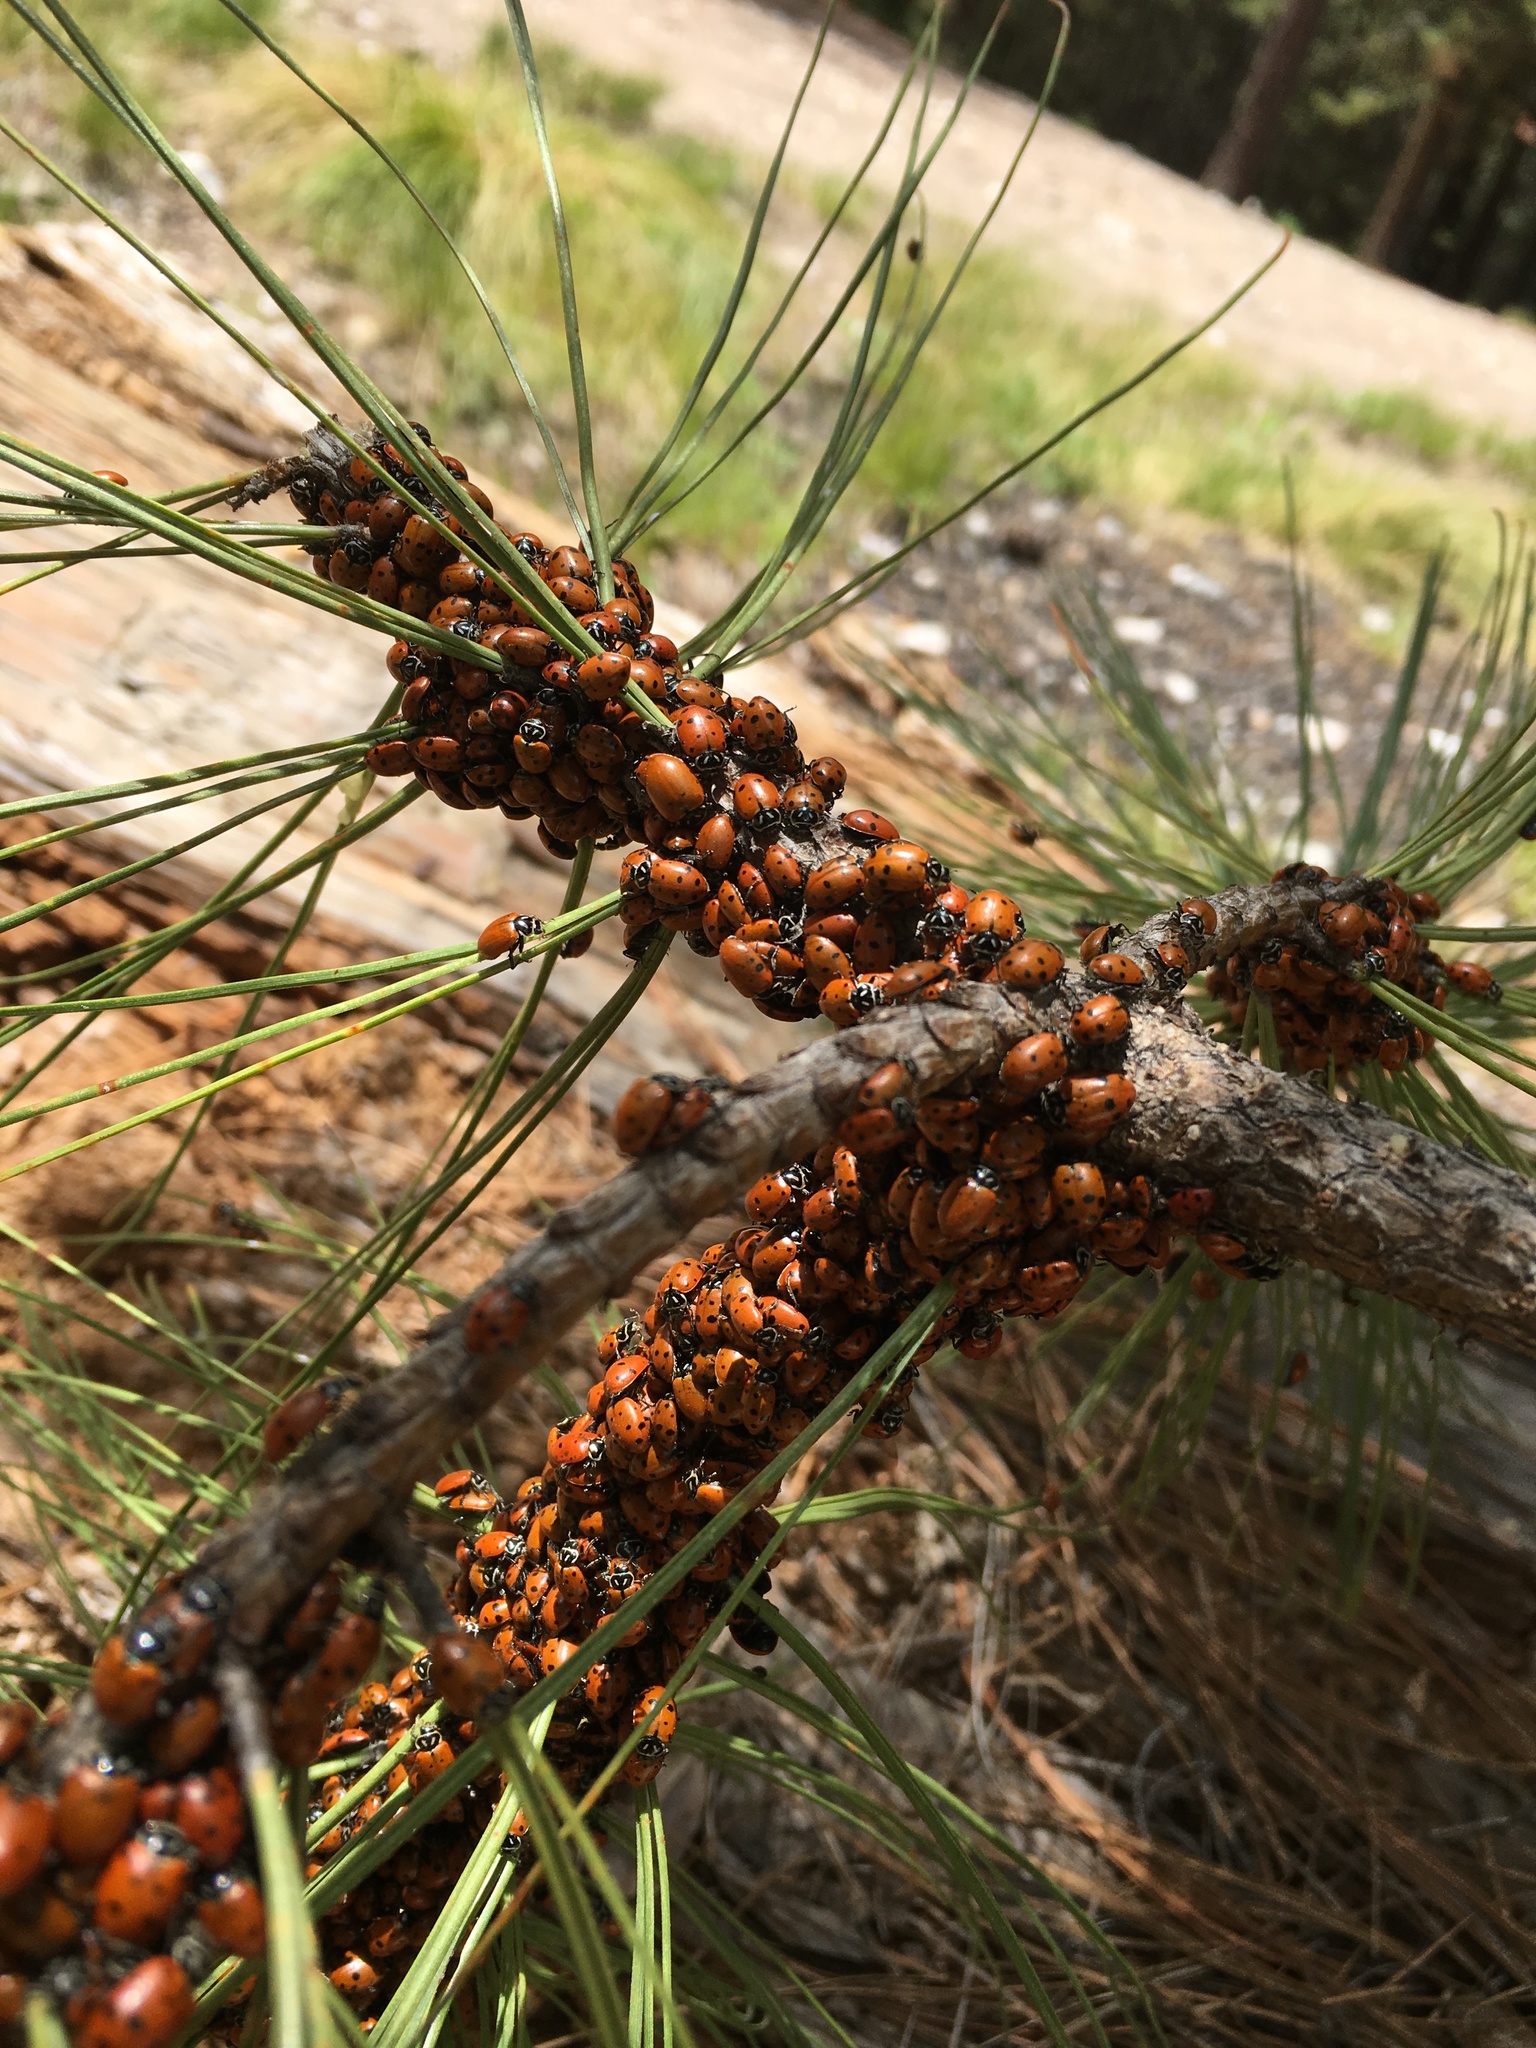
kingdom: Animalia
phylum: Arthropoda
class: Insecta
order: Coleoptera
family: Coccinellidae
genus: Hippodamia
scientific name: Hippodamia convergens
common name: Convergent lady beetle
